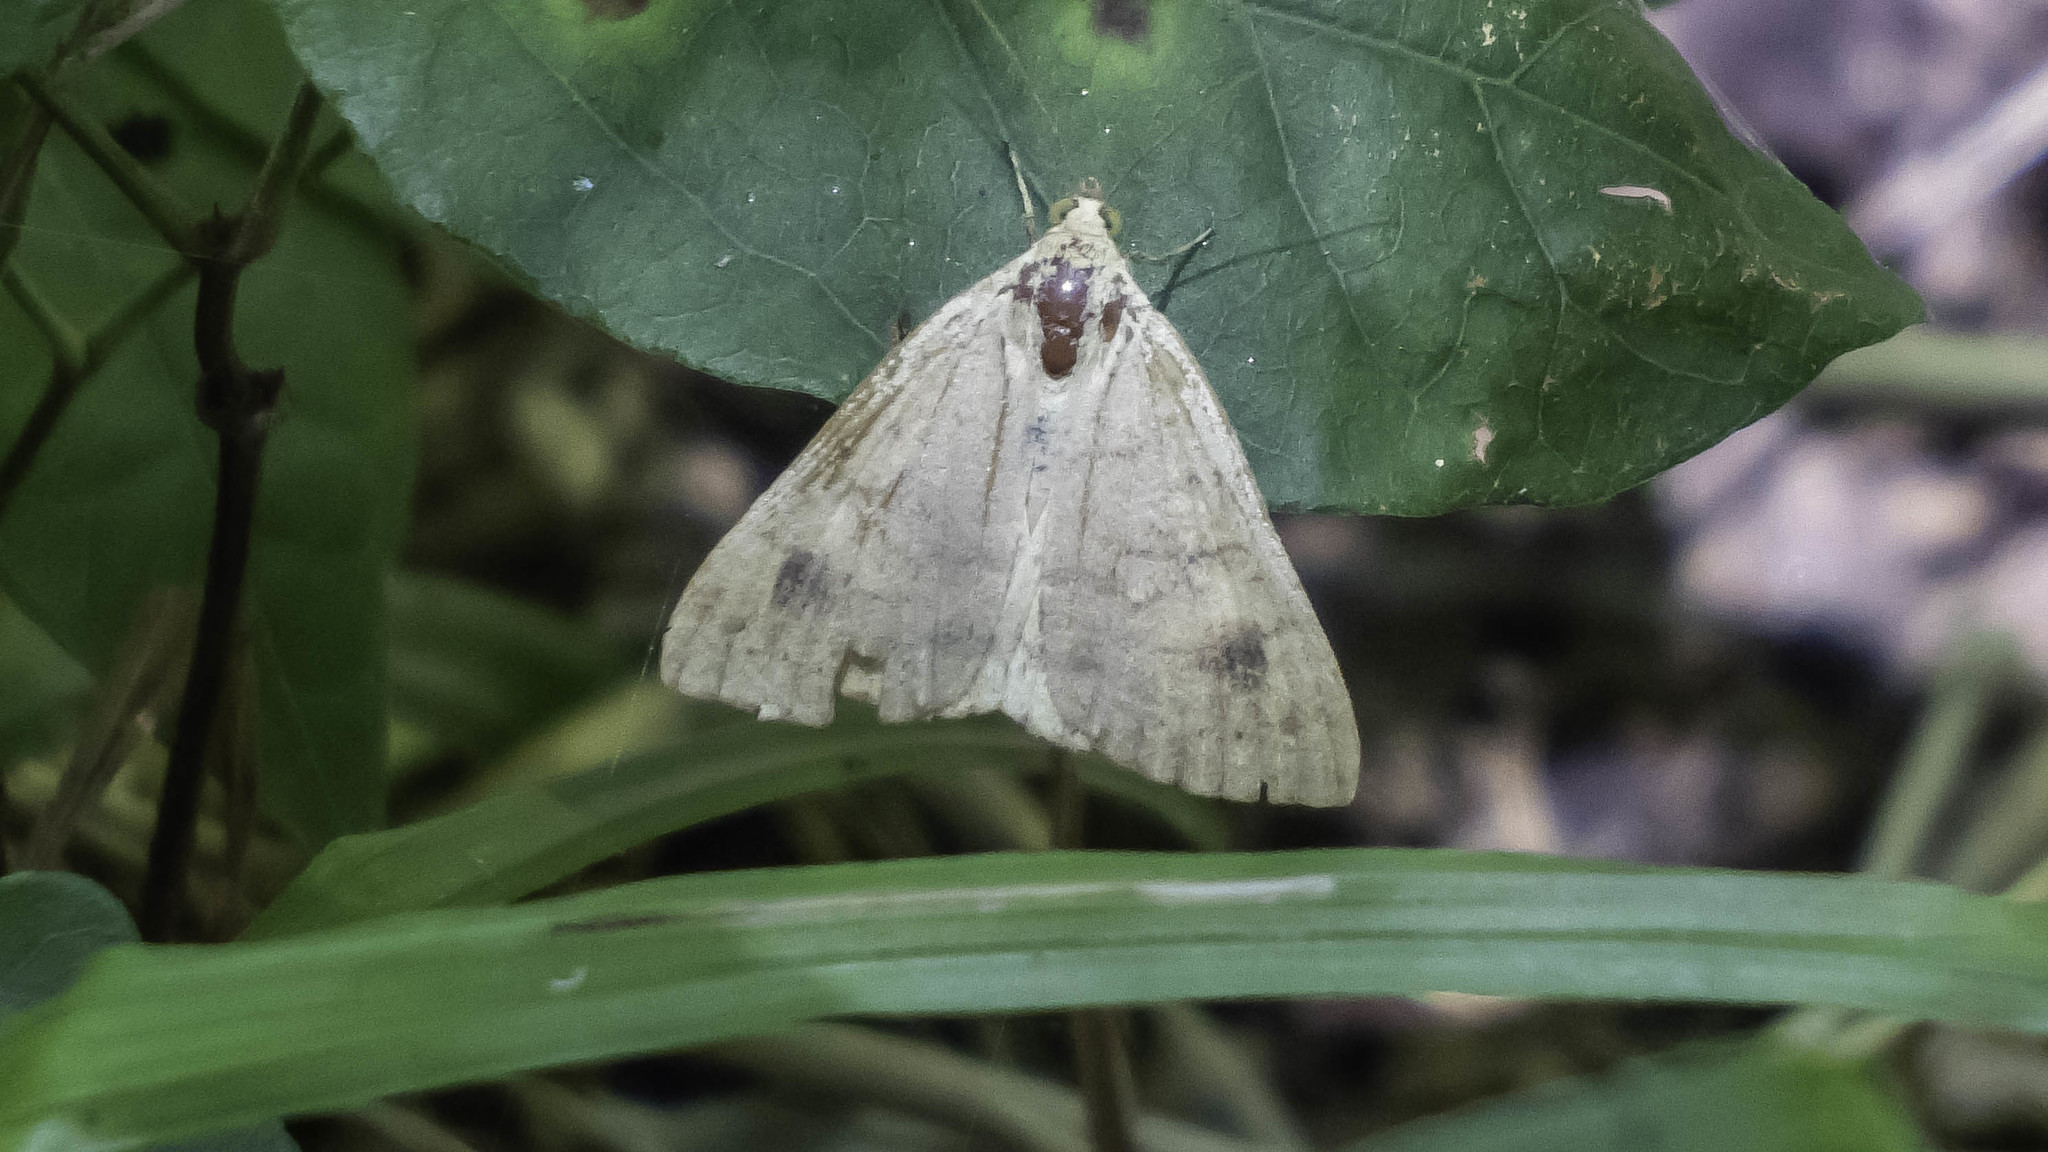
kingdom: Animalia
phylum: Arthropoda
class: Insecta
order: Lepidoptera
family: Erebidae
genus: Caenurgia
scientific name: Caenurgia chloropha
